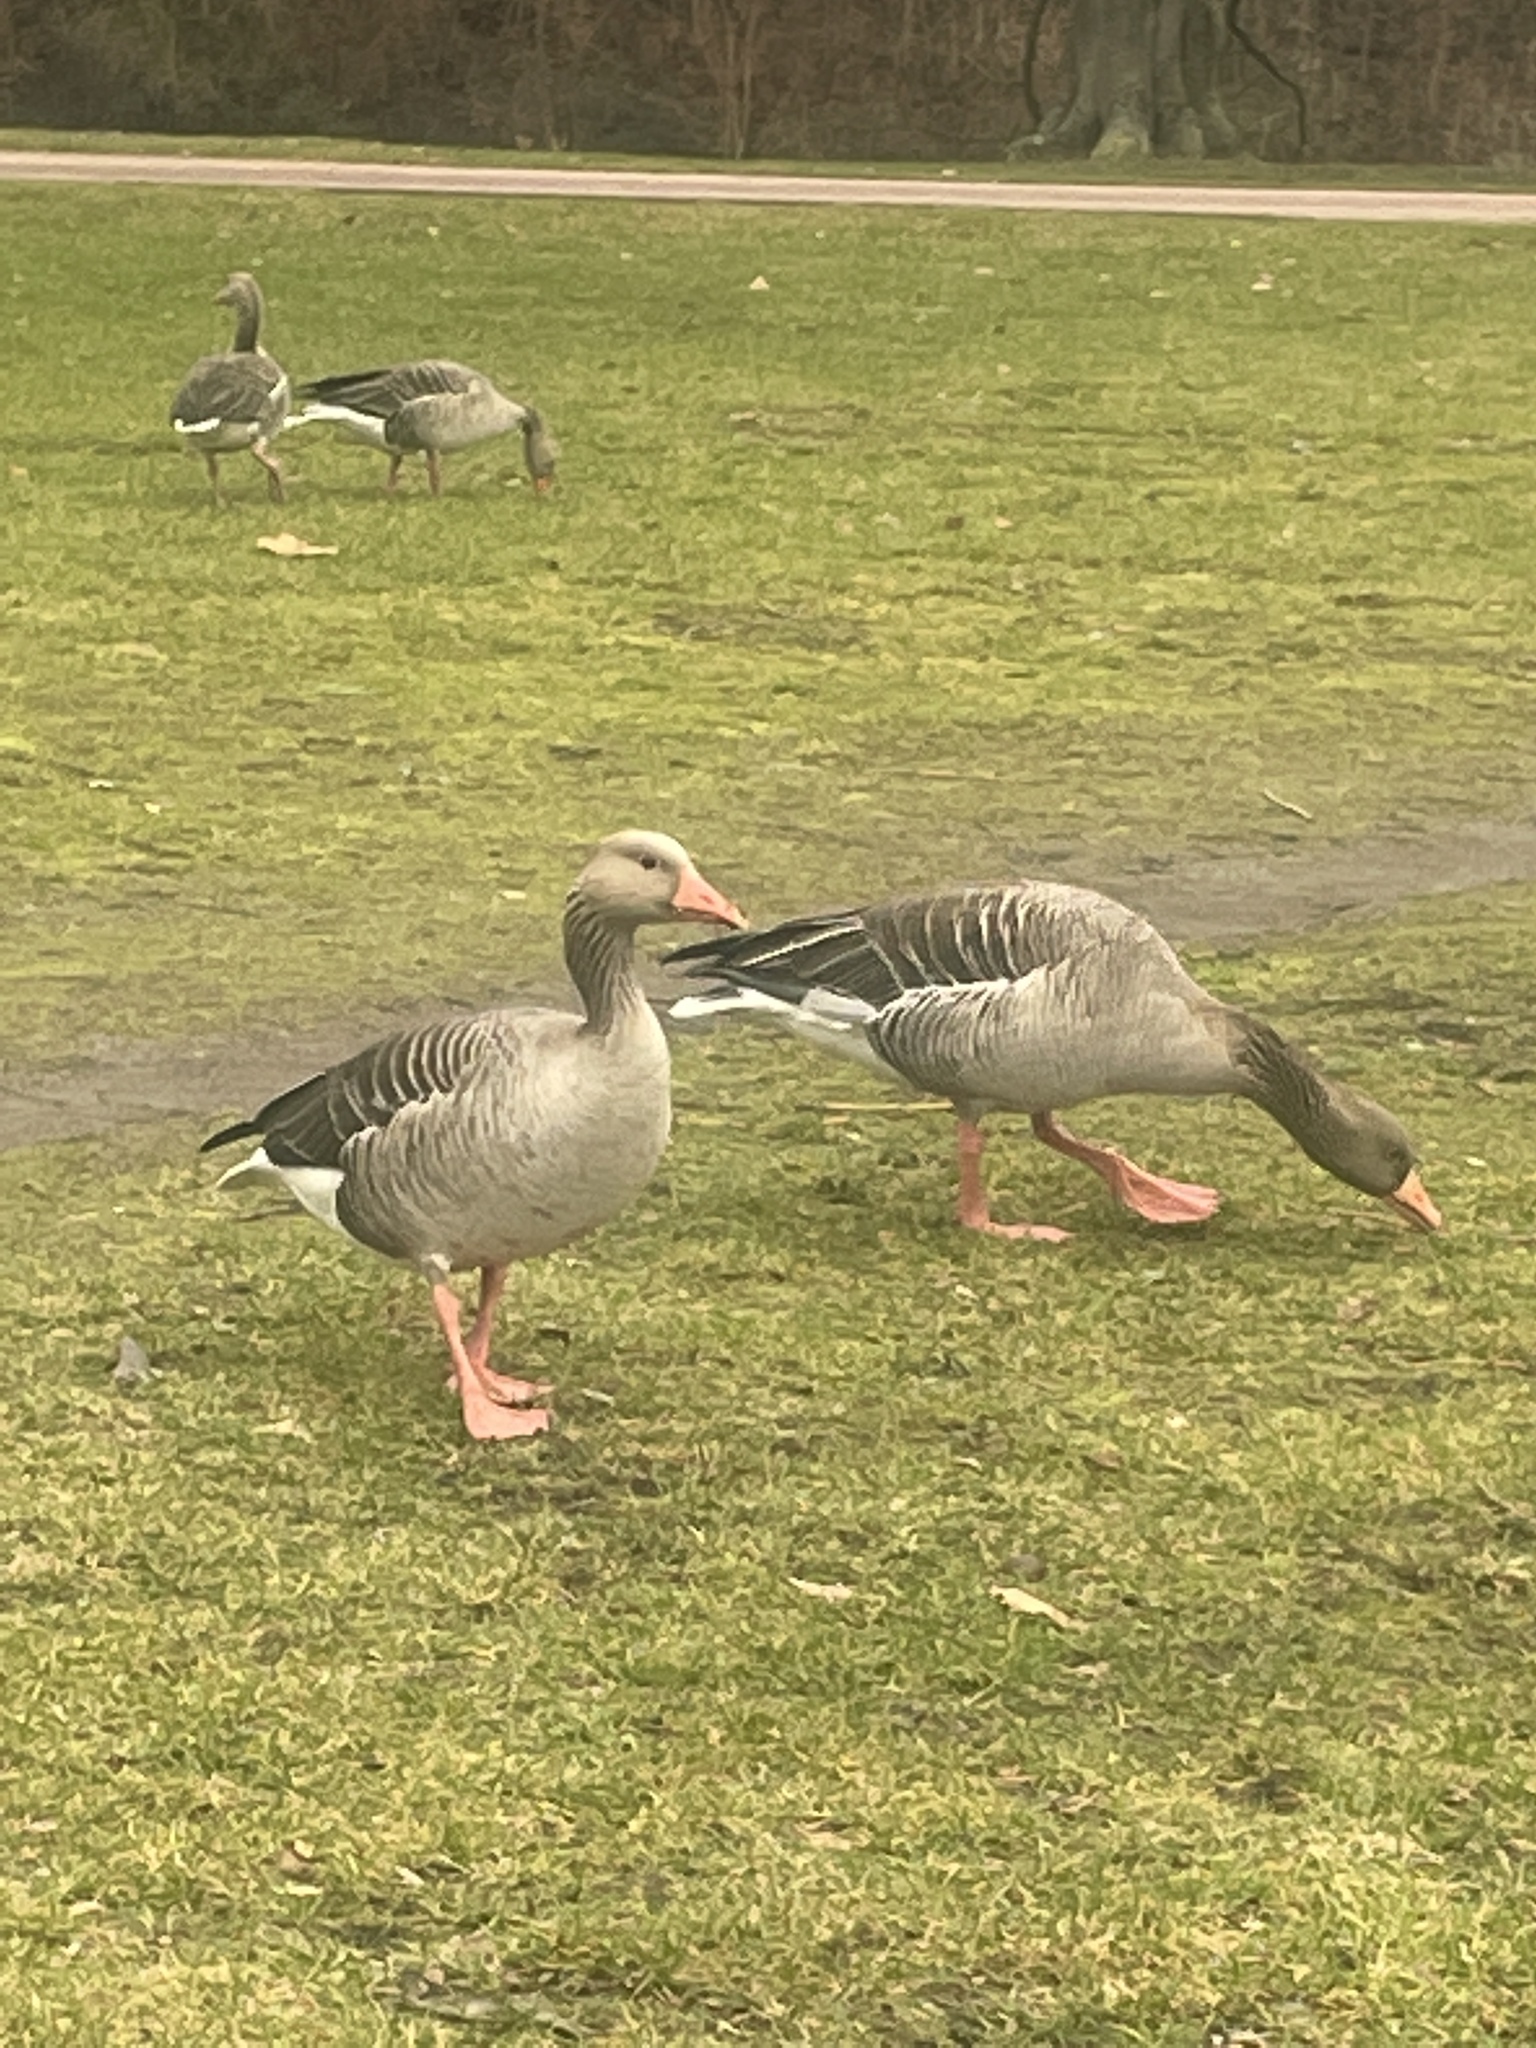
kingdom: Animalia
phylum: Chordata
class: Aves
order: Anseriformes
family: Anatidae
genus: Anser
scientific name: Anser anser
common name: Greylag goose
